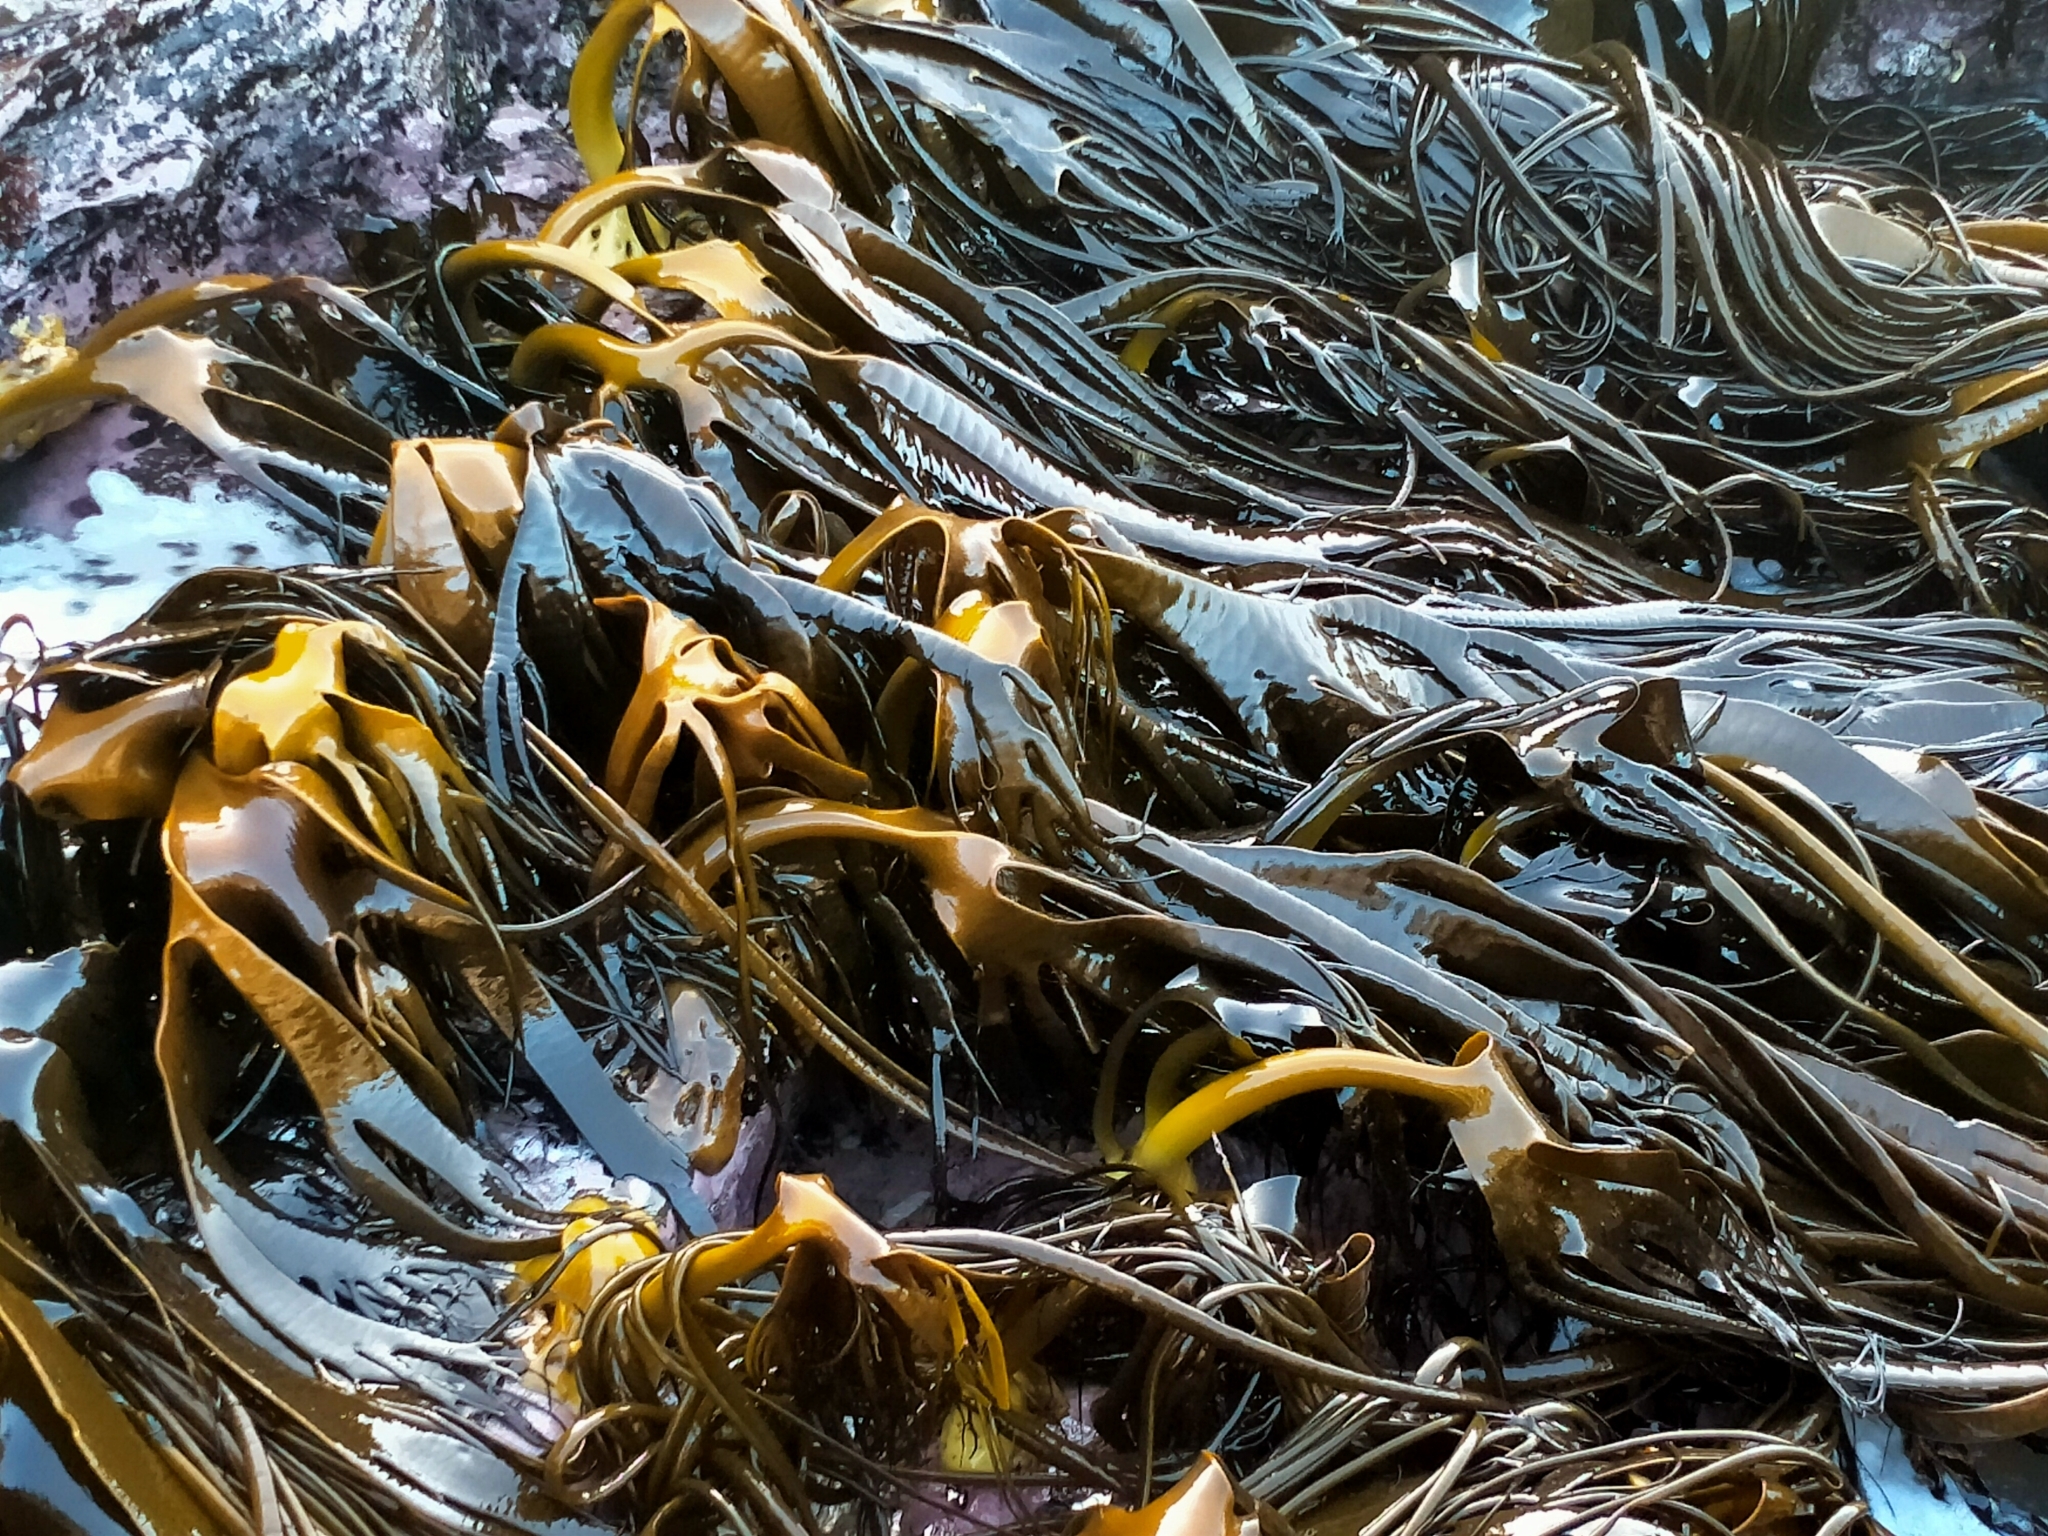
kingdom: Chromista
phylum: Ochrophyta
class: Phaeophyceae
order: Fucales
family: Durvillaeaceae
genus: Durvillaea
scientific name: Durvillaea antarctica
